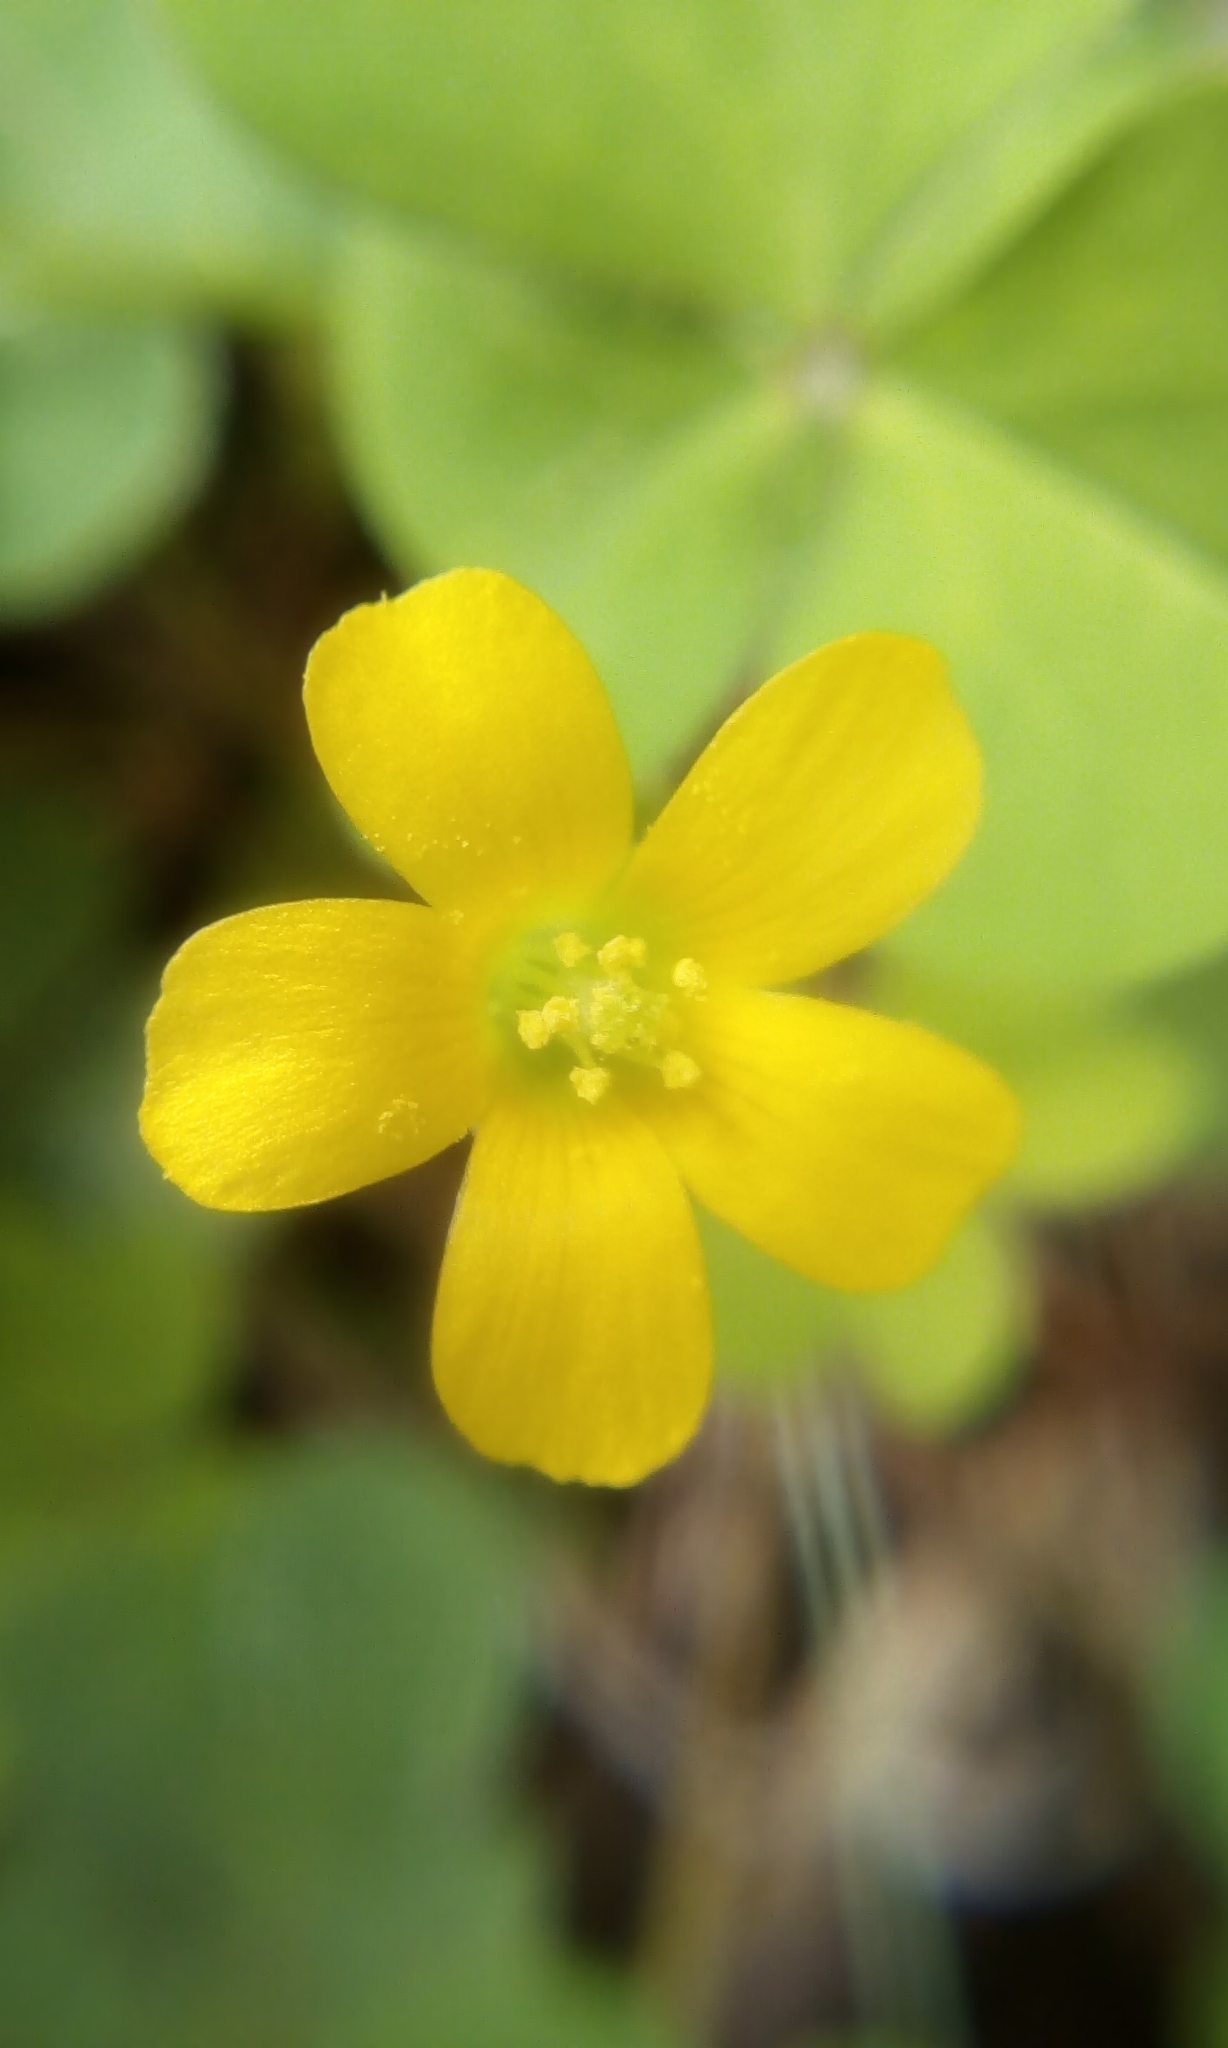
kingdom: Plantae
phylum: Tracheophyta
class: Magnoliopsida
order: Oxalidales
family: Oxalidaceae
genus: Oxalis
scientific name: Oxalis corniculata
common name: Procumbent yellow-sorrel
